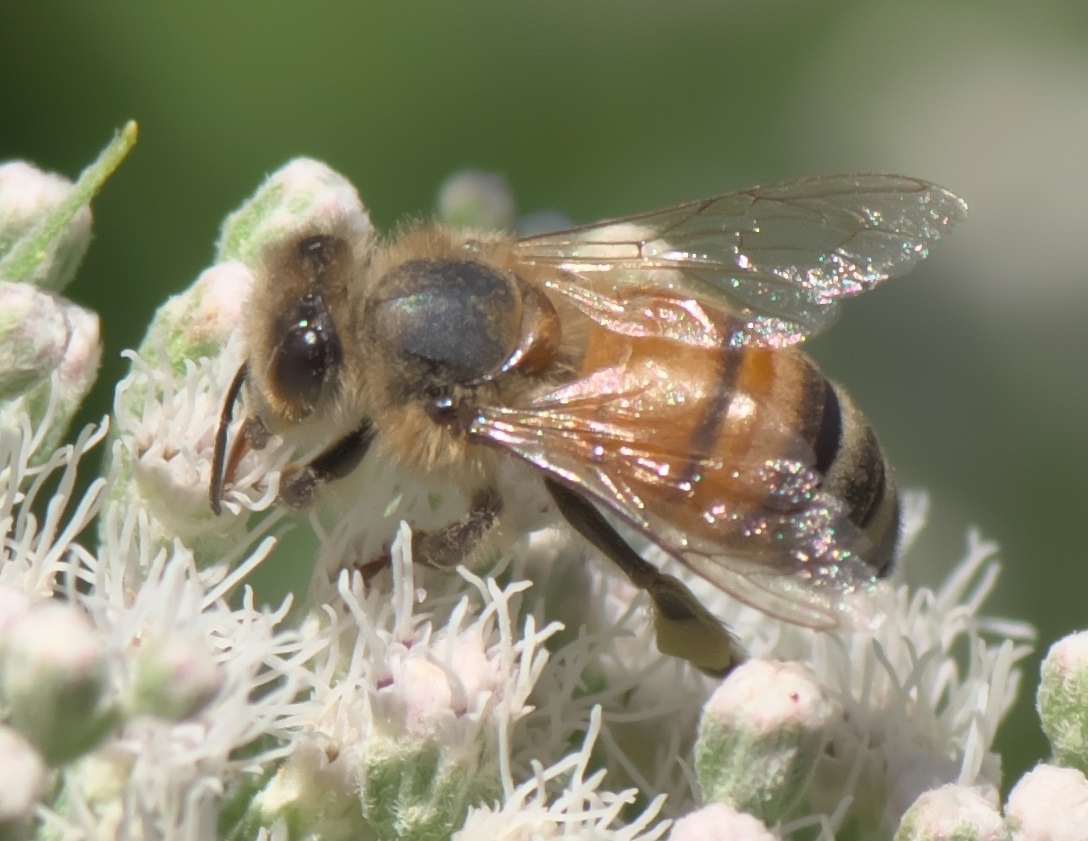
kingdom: Animalia
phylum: Arthropoda
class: Insecta
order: Hymenoptera
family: Apidae
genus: Apis
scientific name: Apis mellifera
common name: Honey bee
